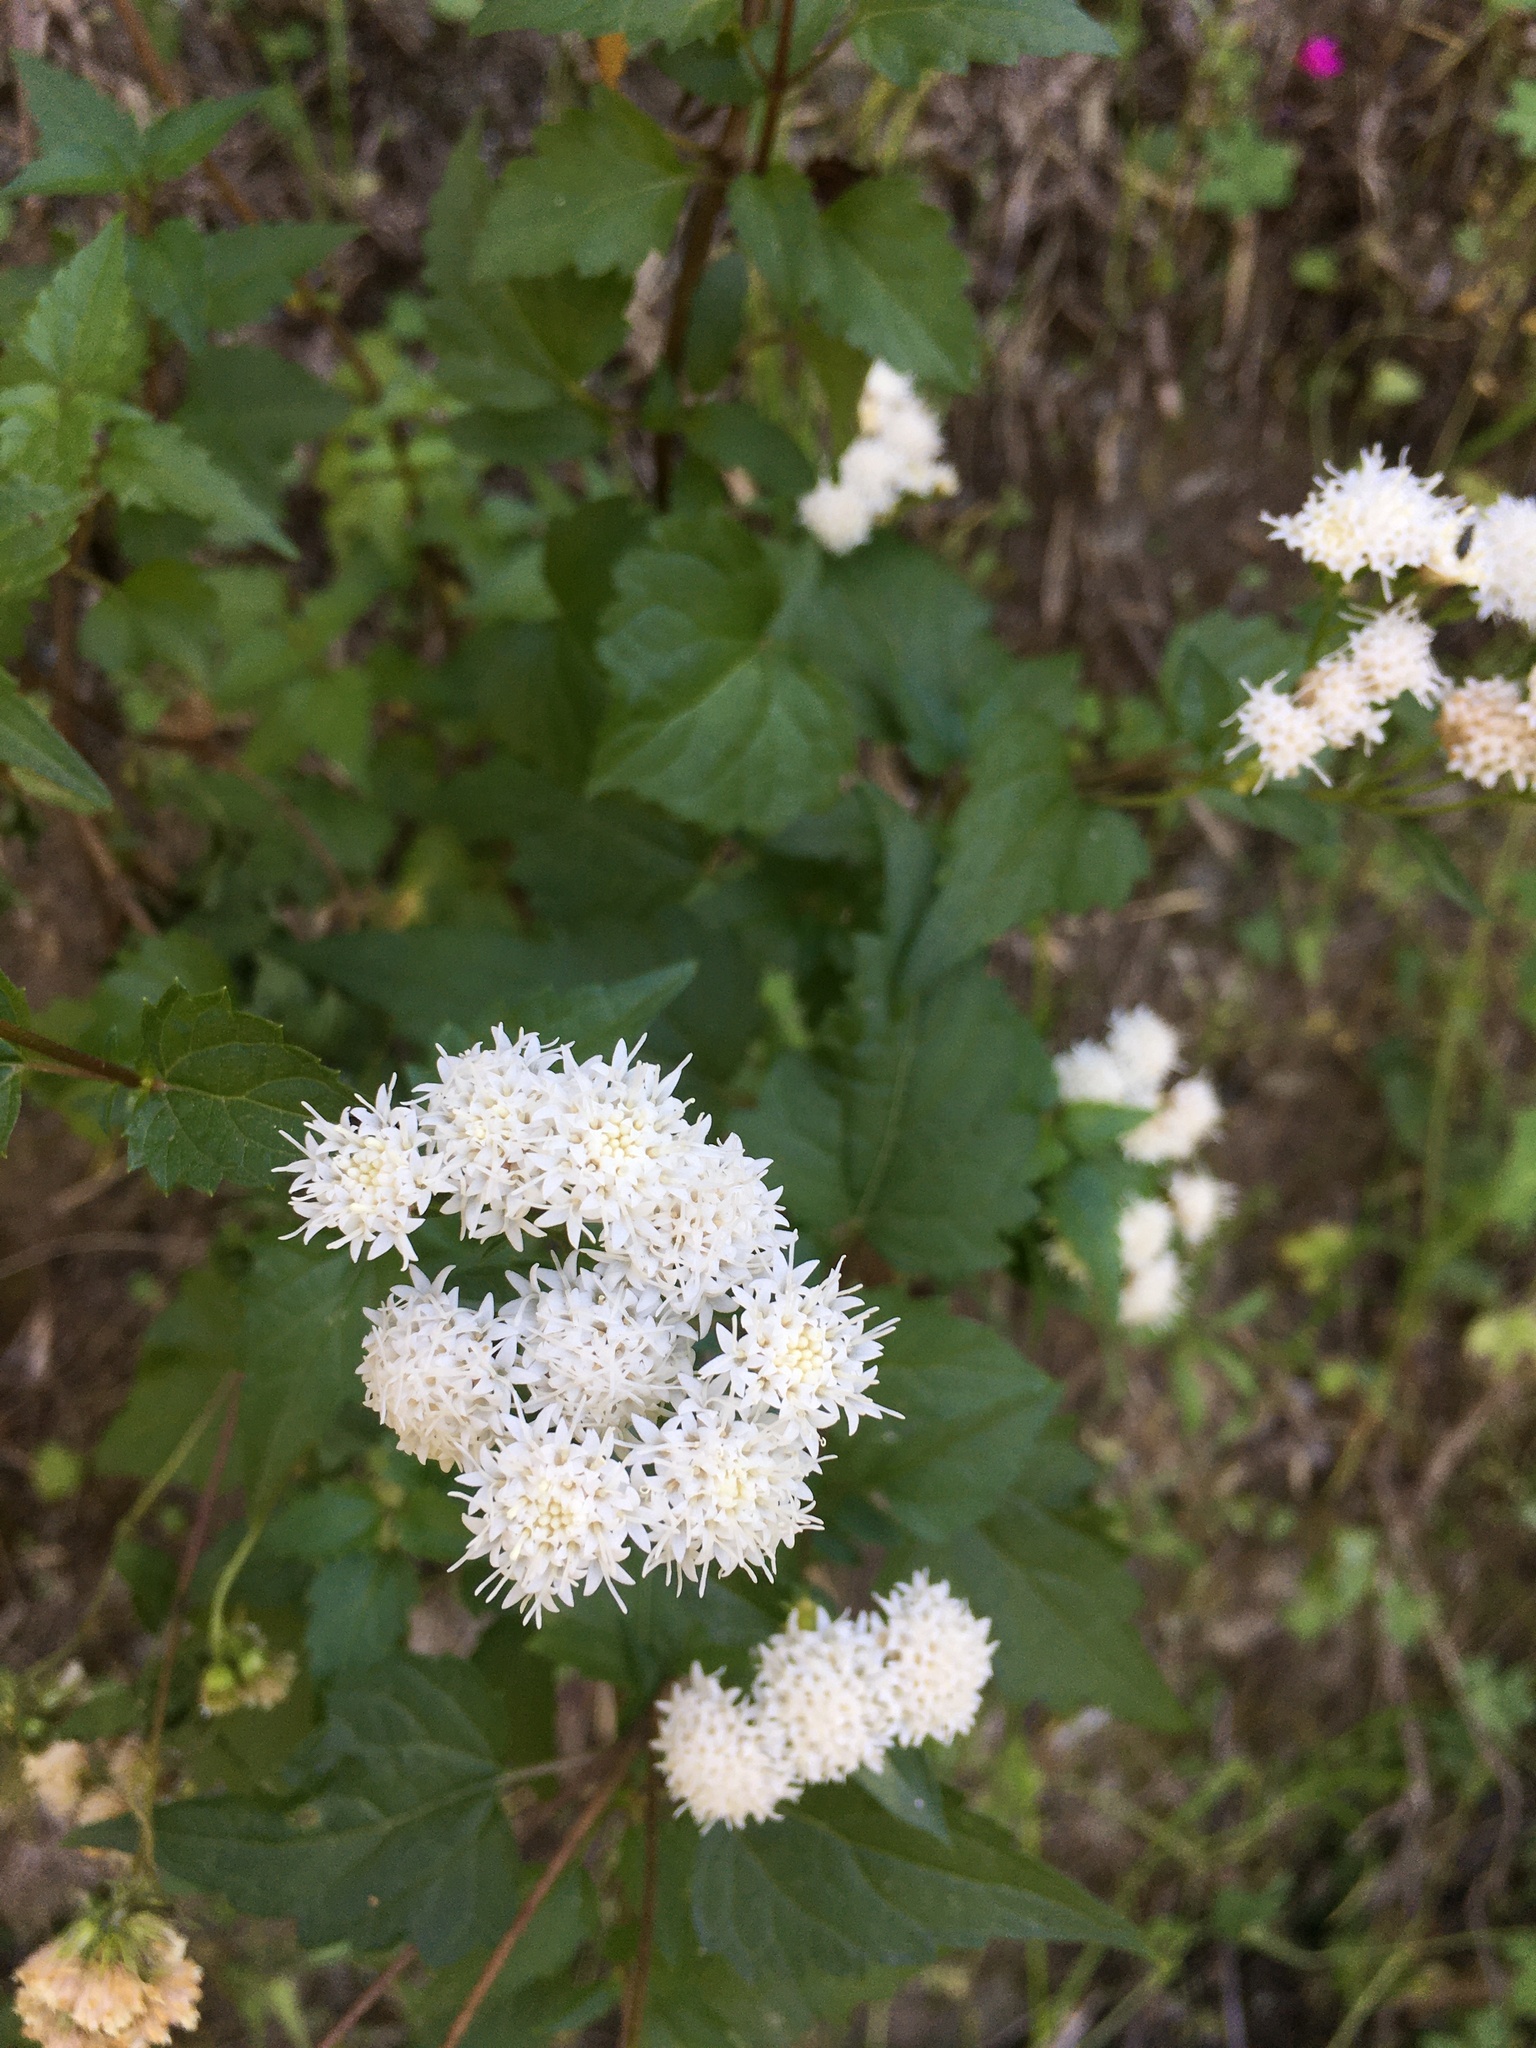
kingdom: Plantae
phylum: Tracheophyta
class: Magnoliopsida
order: Asterales
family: Asteraceae
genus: Ageratina
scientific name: Ageratina glechonophylla
